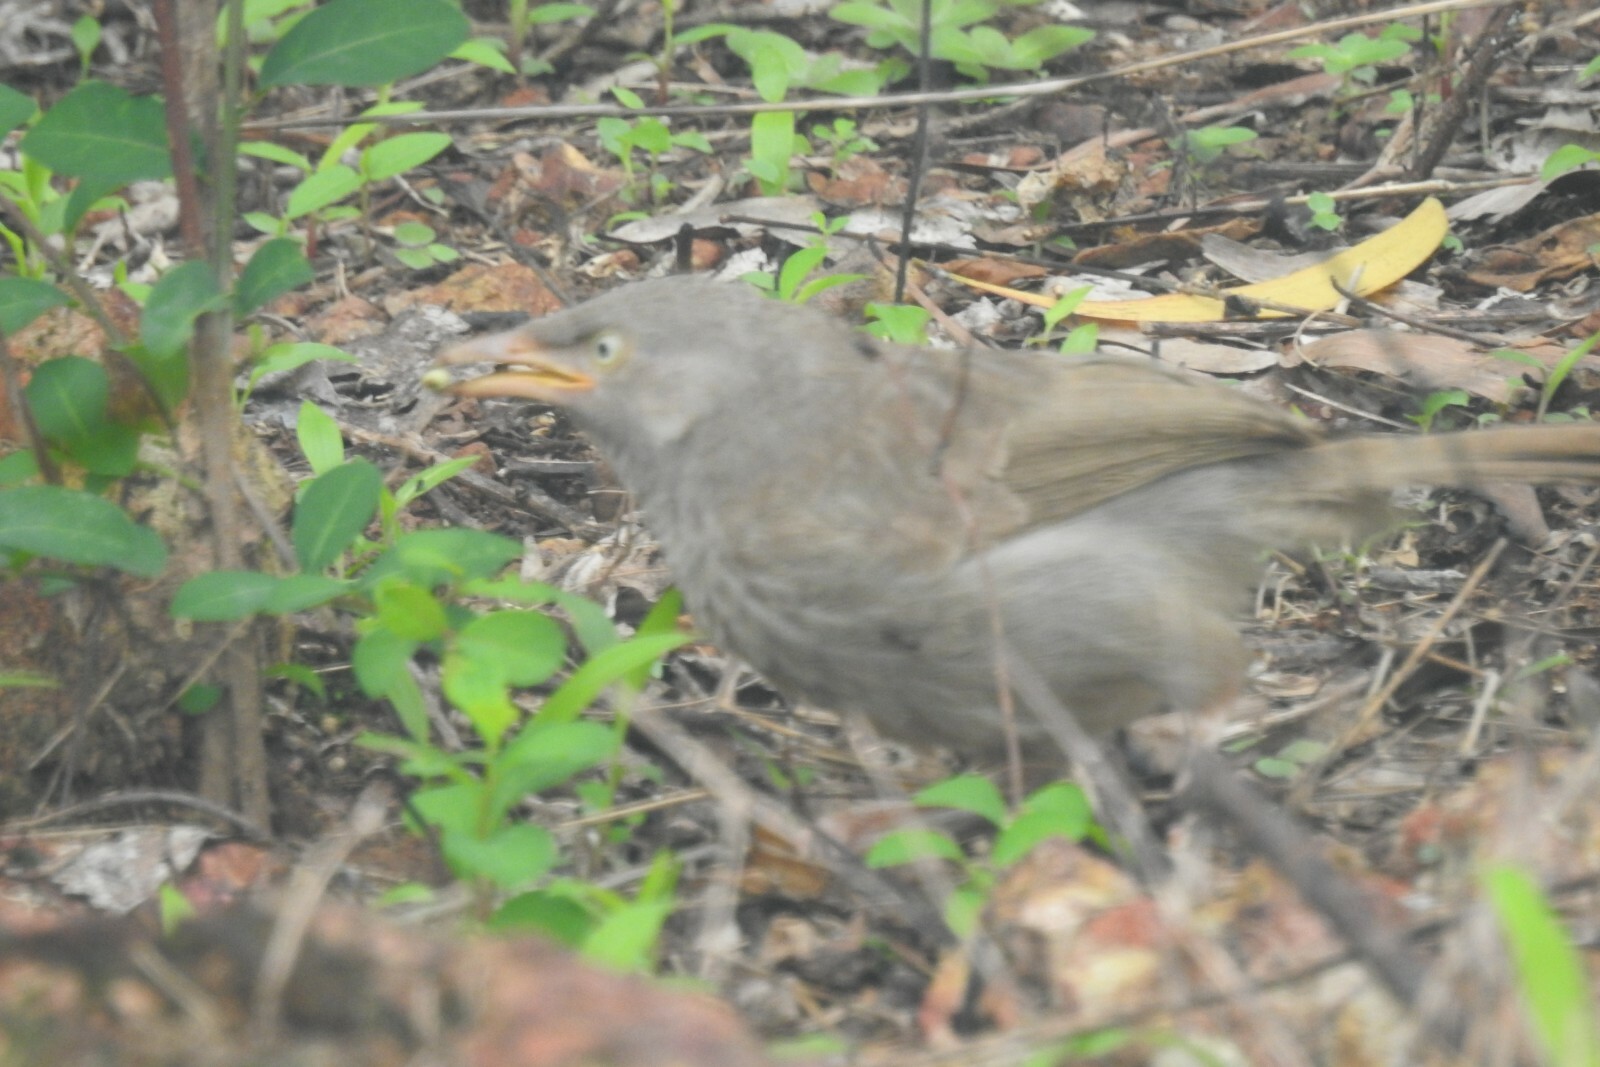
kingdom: Animalia
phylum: Chordata
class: Aves
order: Passeriformes
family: Leiothrichidae
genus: Turdoides
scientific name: Turdoides striata
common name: Jungle babbler
